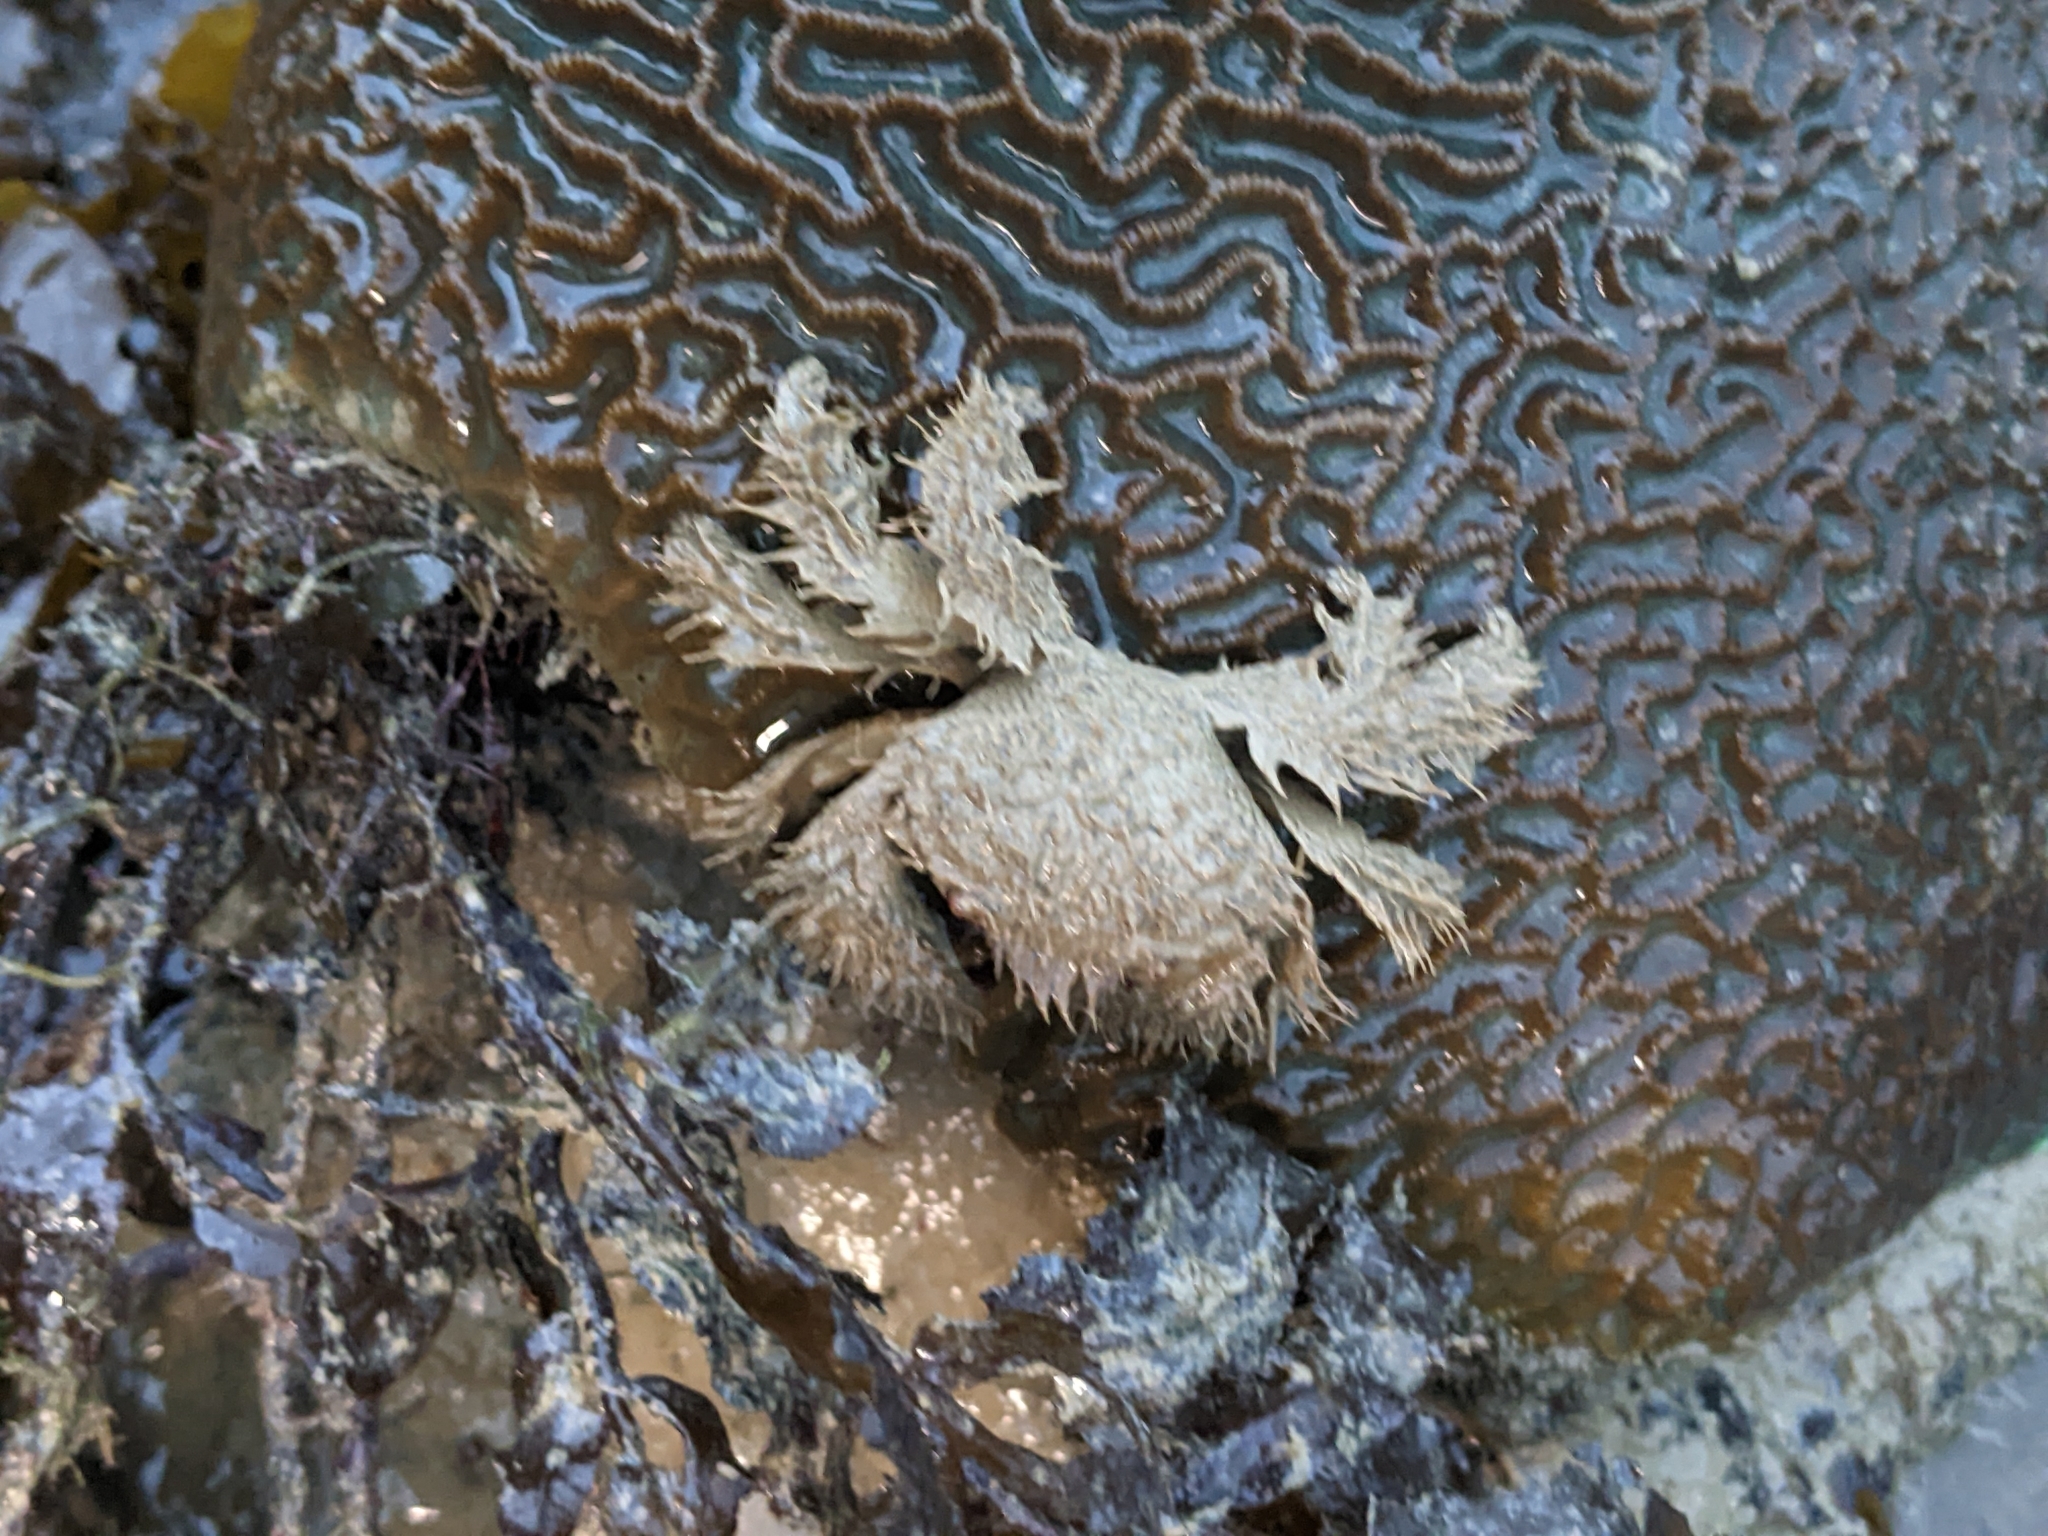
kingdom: Animalia
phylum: Arthropoda
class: Malacostraca
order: Decapoda
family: Pilumnidae
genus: Pilumnus
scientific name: Pilumnus vespertilio
